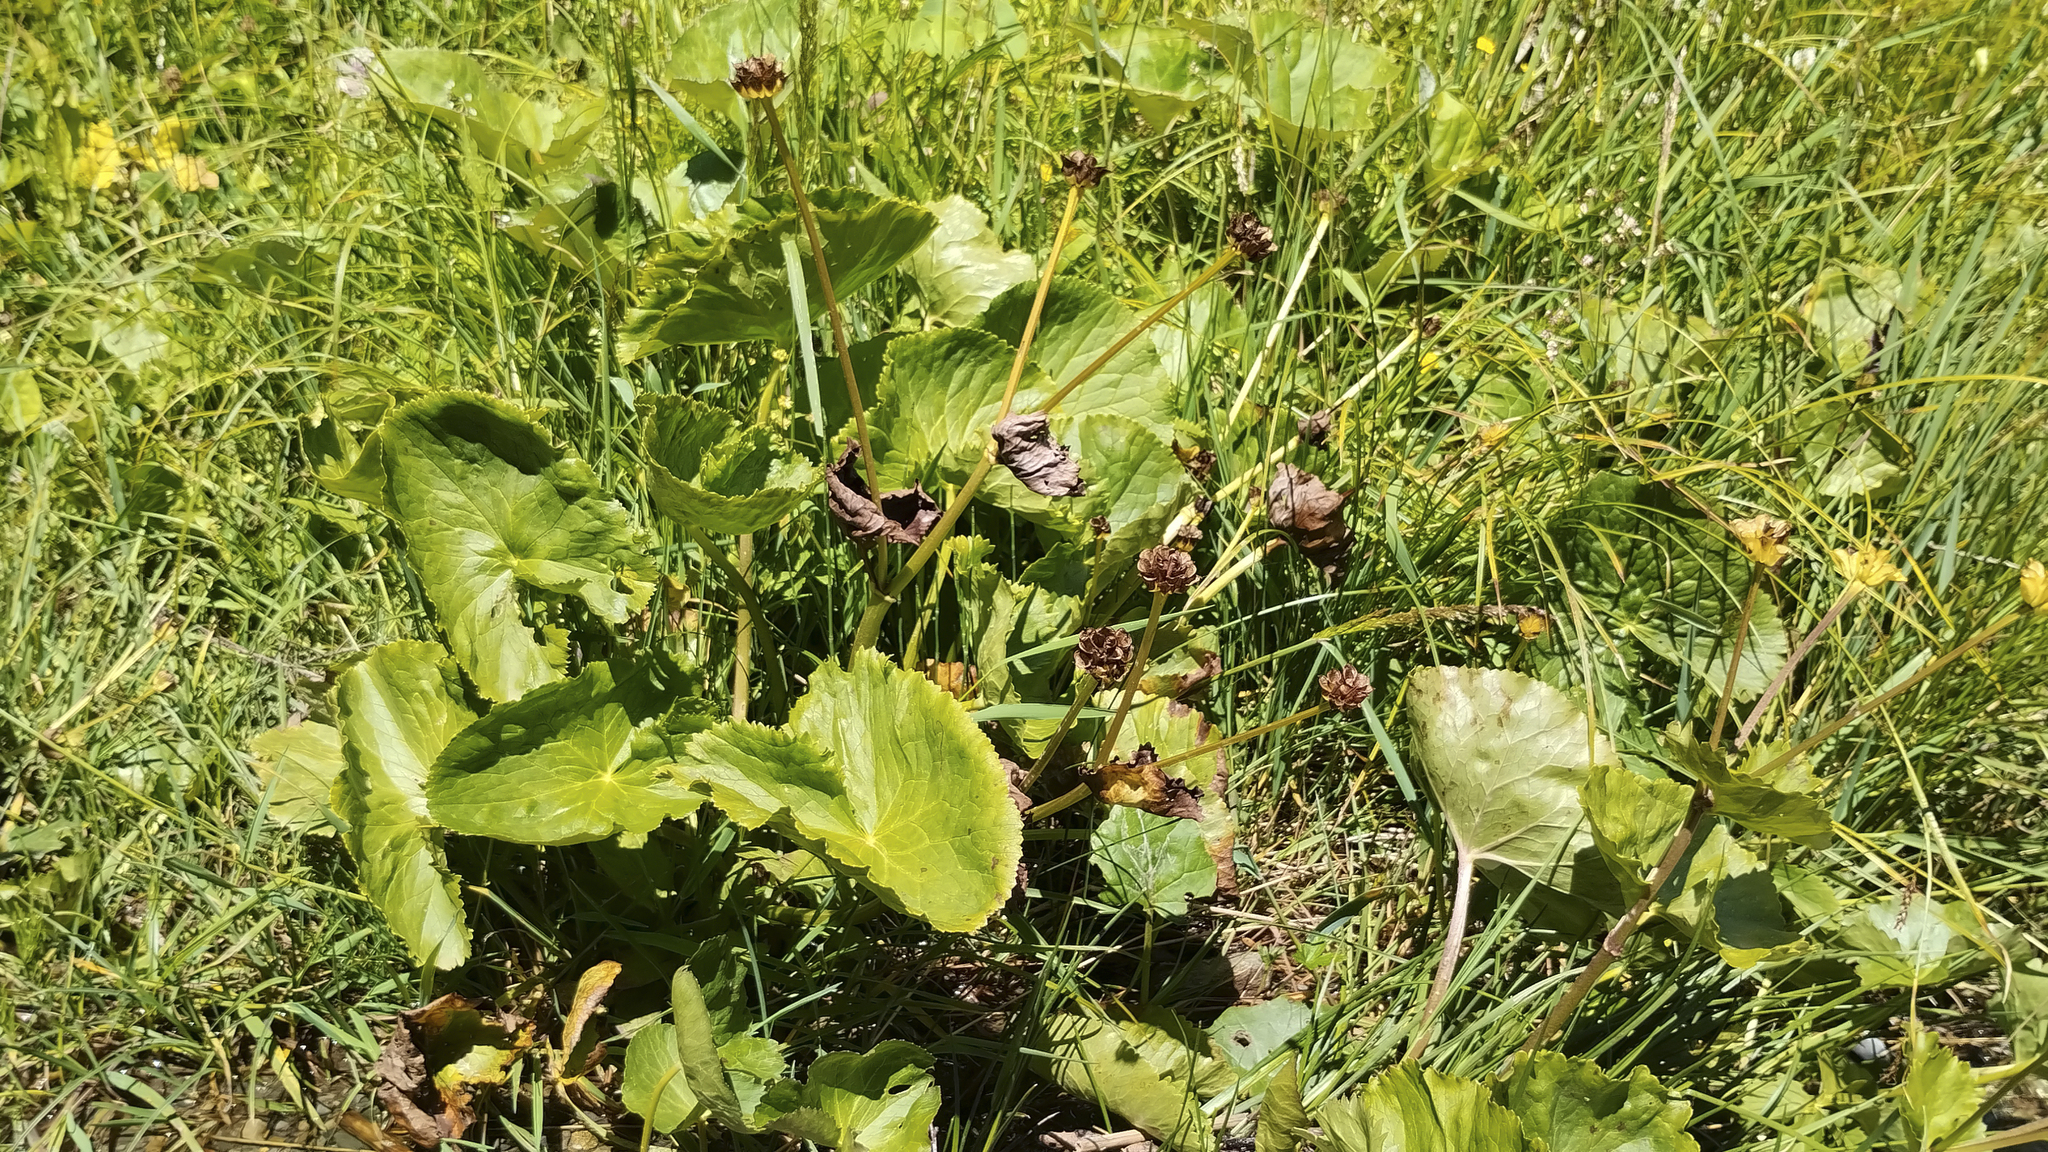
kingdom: Plantae
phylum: Tracheophyta
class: Magnoliopsida
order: Ranunculales
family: Ranunculaceae
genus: Caltha
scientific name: Caltha palustris
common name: Marsh marigold
